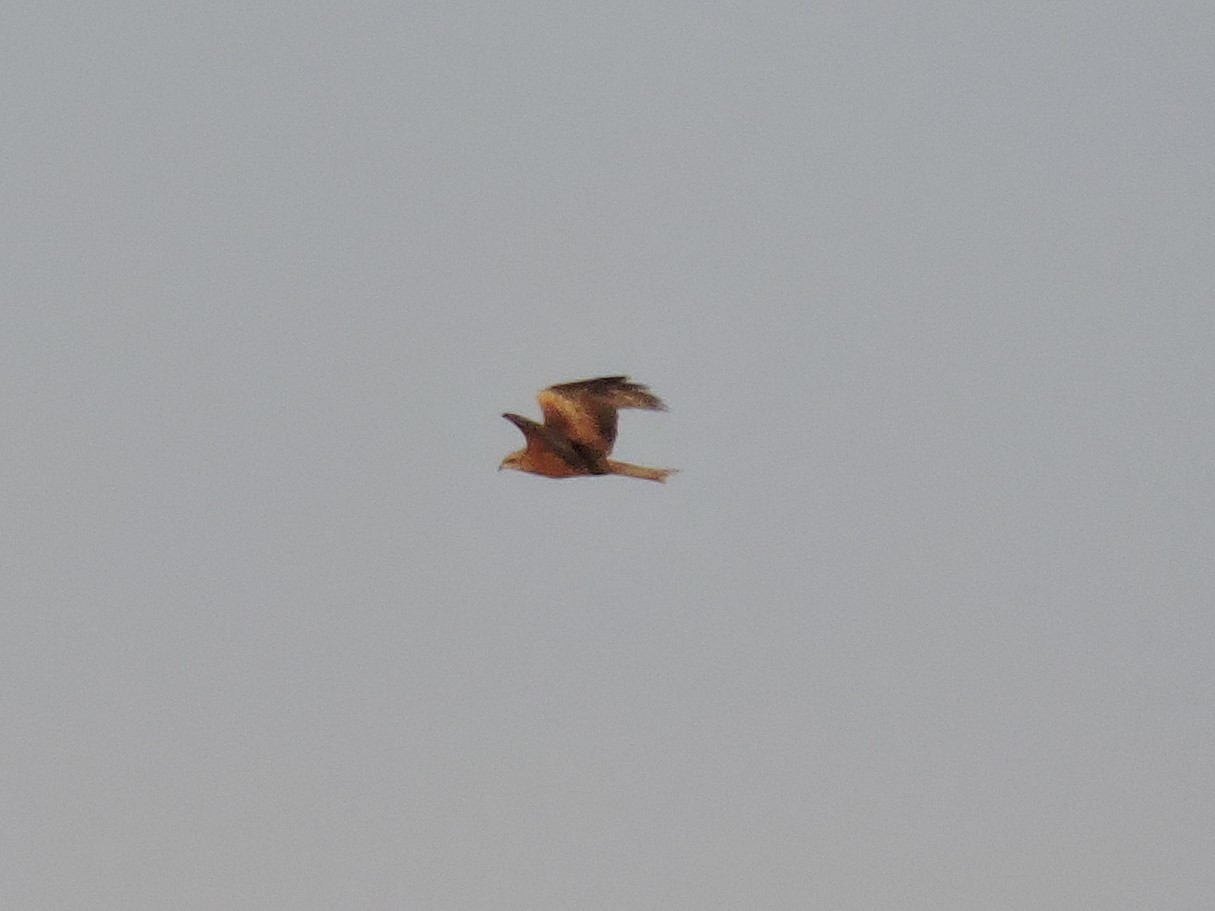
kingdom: Animalia
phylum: Chordata
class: Aves
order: Accipitriformes
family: Accipitridae
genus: Milvus
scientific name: Milvus migrans
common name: Black kite
